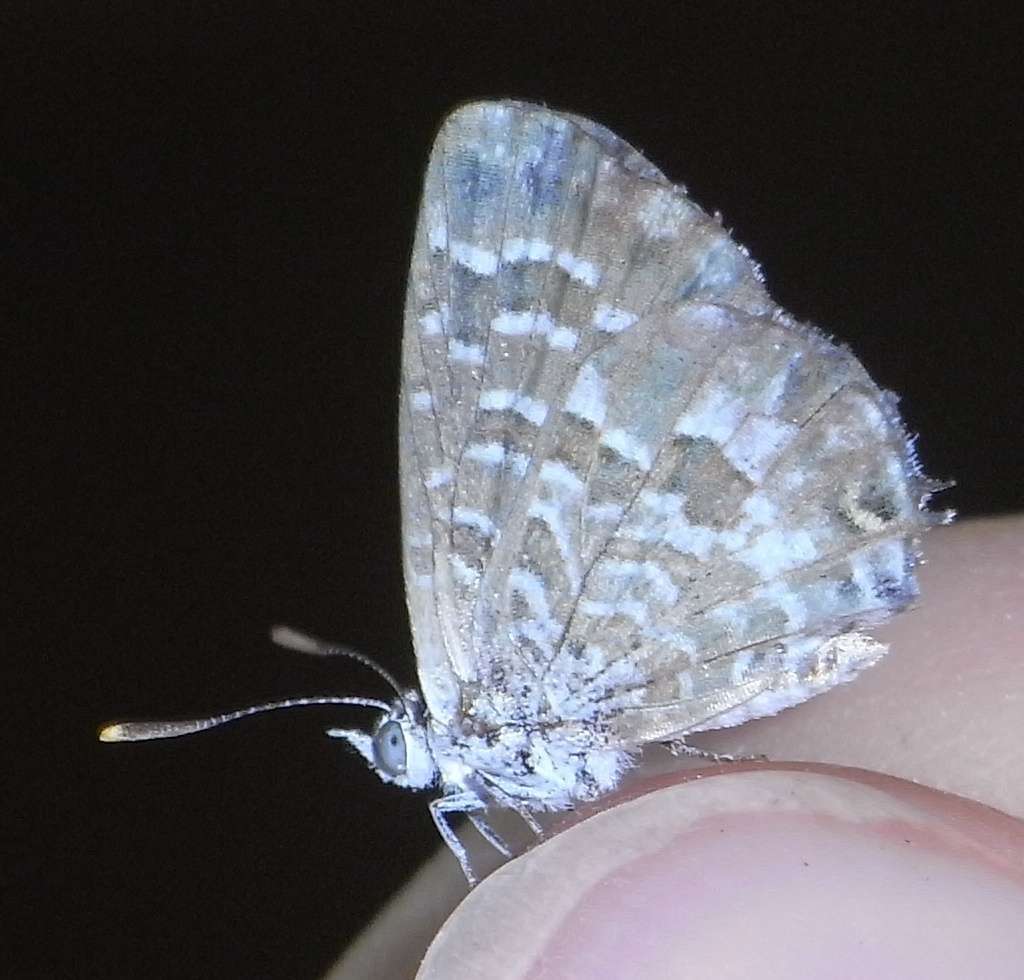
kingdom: Animalia
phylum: Arthropoda
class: Insecta
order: Lepidoptera
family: Lycaenidae
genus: Theclinesthes
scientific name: Theclinesthes serpentata
